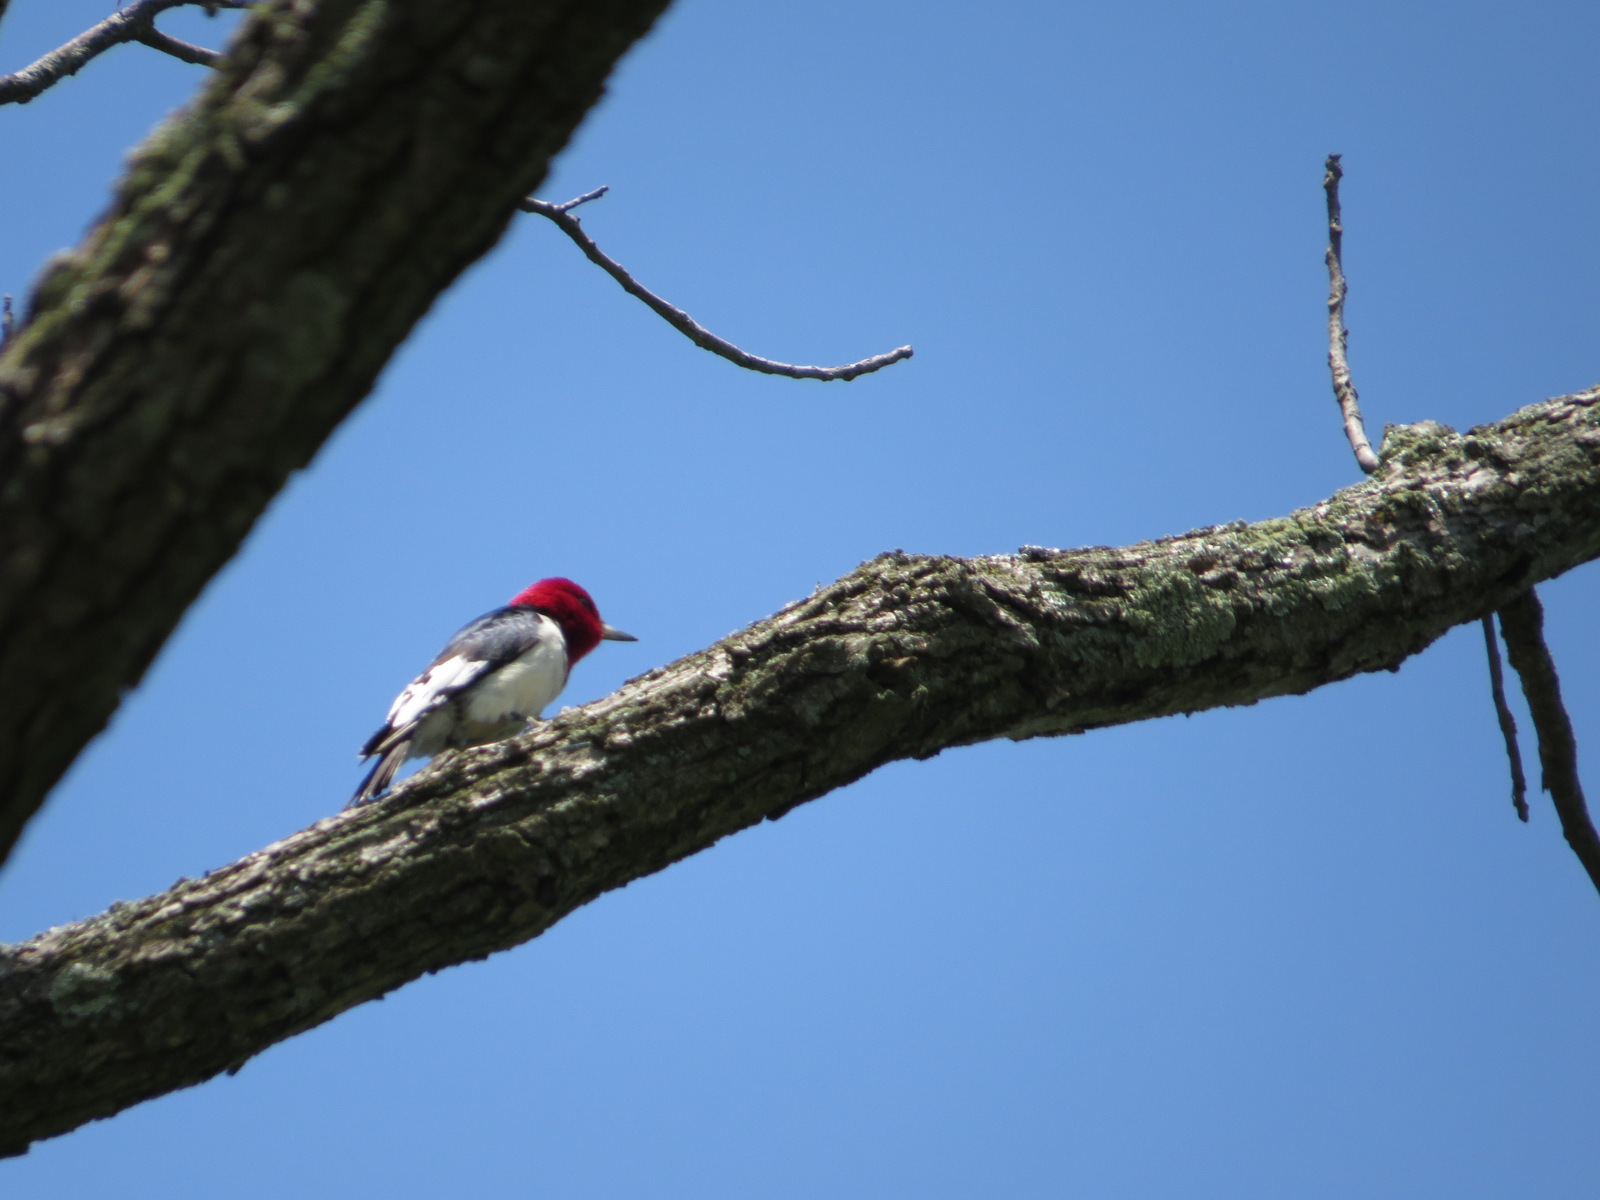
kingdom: Animalia
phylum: Chordata
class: Aves
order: Piciformes
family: Picidae
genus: Melanerpes
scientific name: Melanerpes erythrocephalus
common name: Red-headed woodpecker
